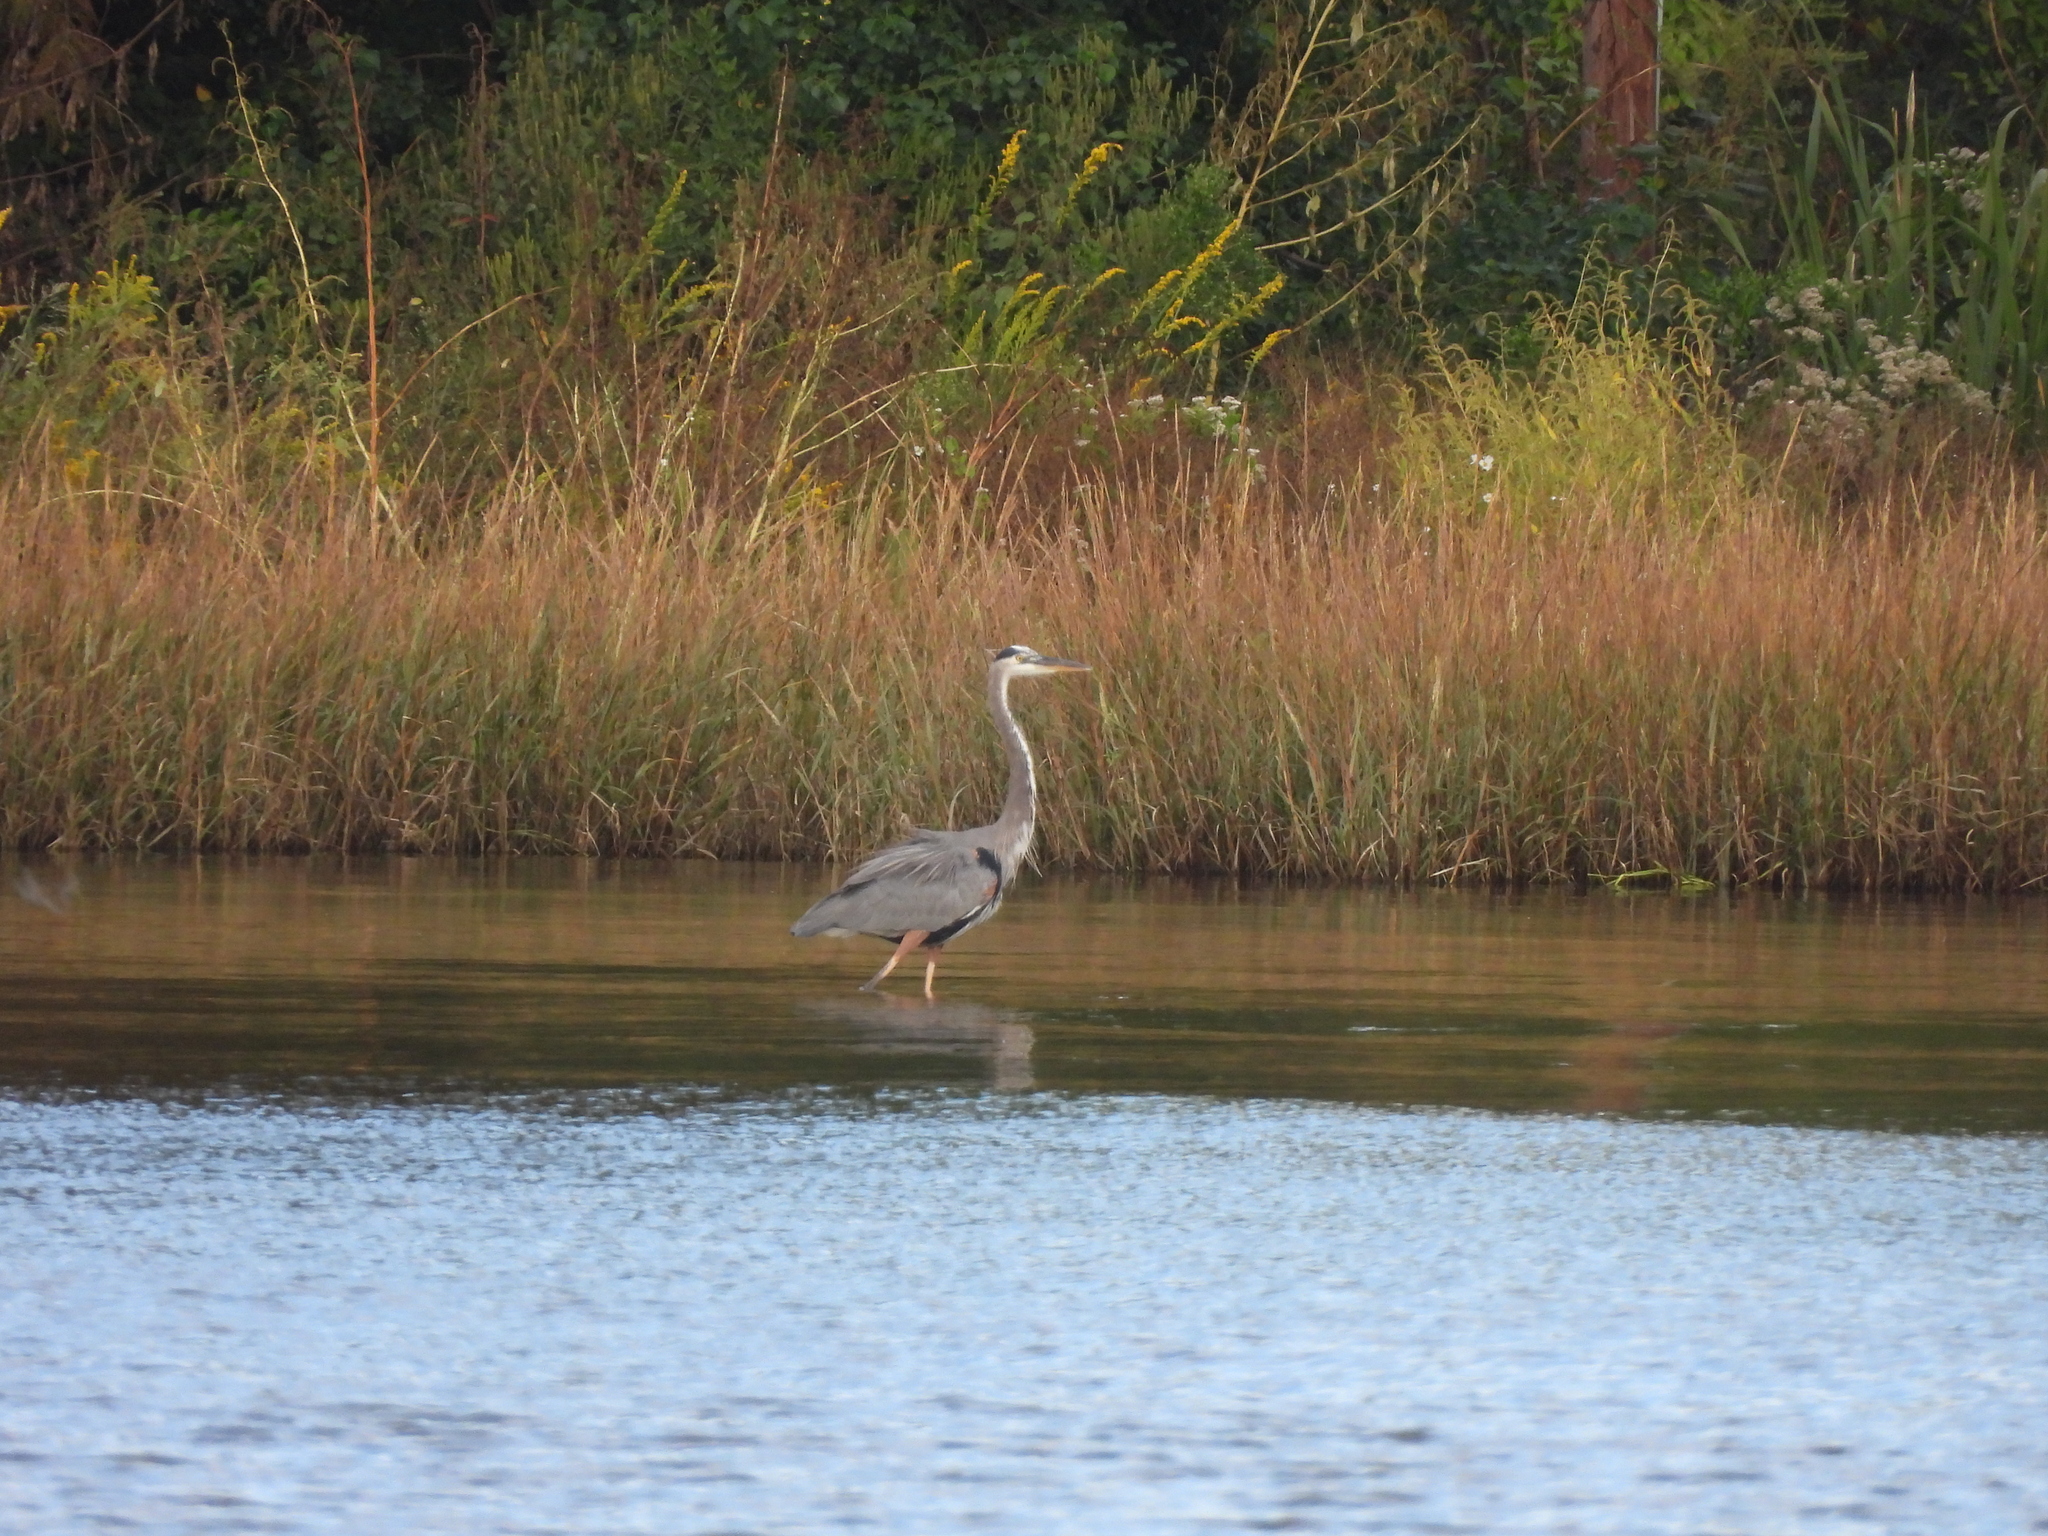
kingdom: Animalia
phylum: Chordata
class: Aves
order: Pelecaniformes
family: Ardeidae
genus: Ardea
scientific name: Ardea herodias
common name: Great blue heron
